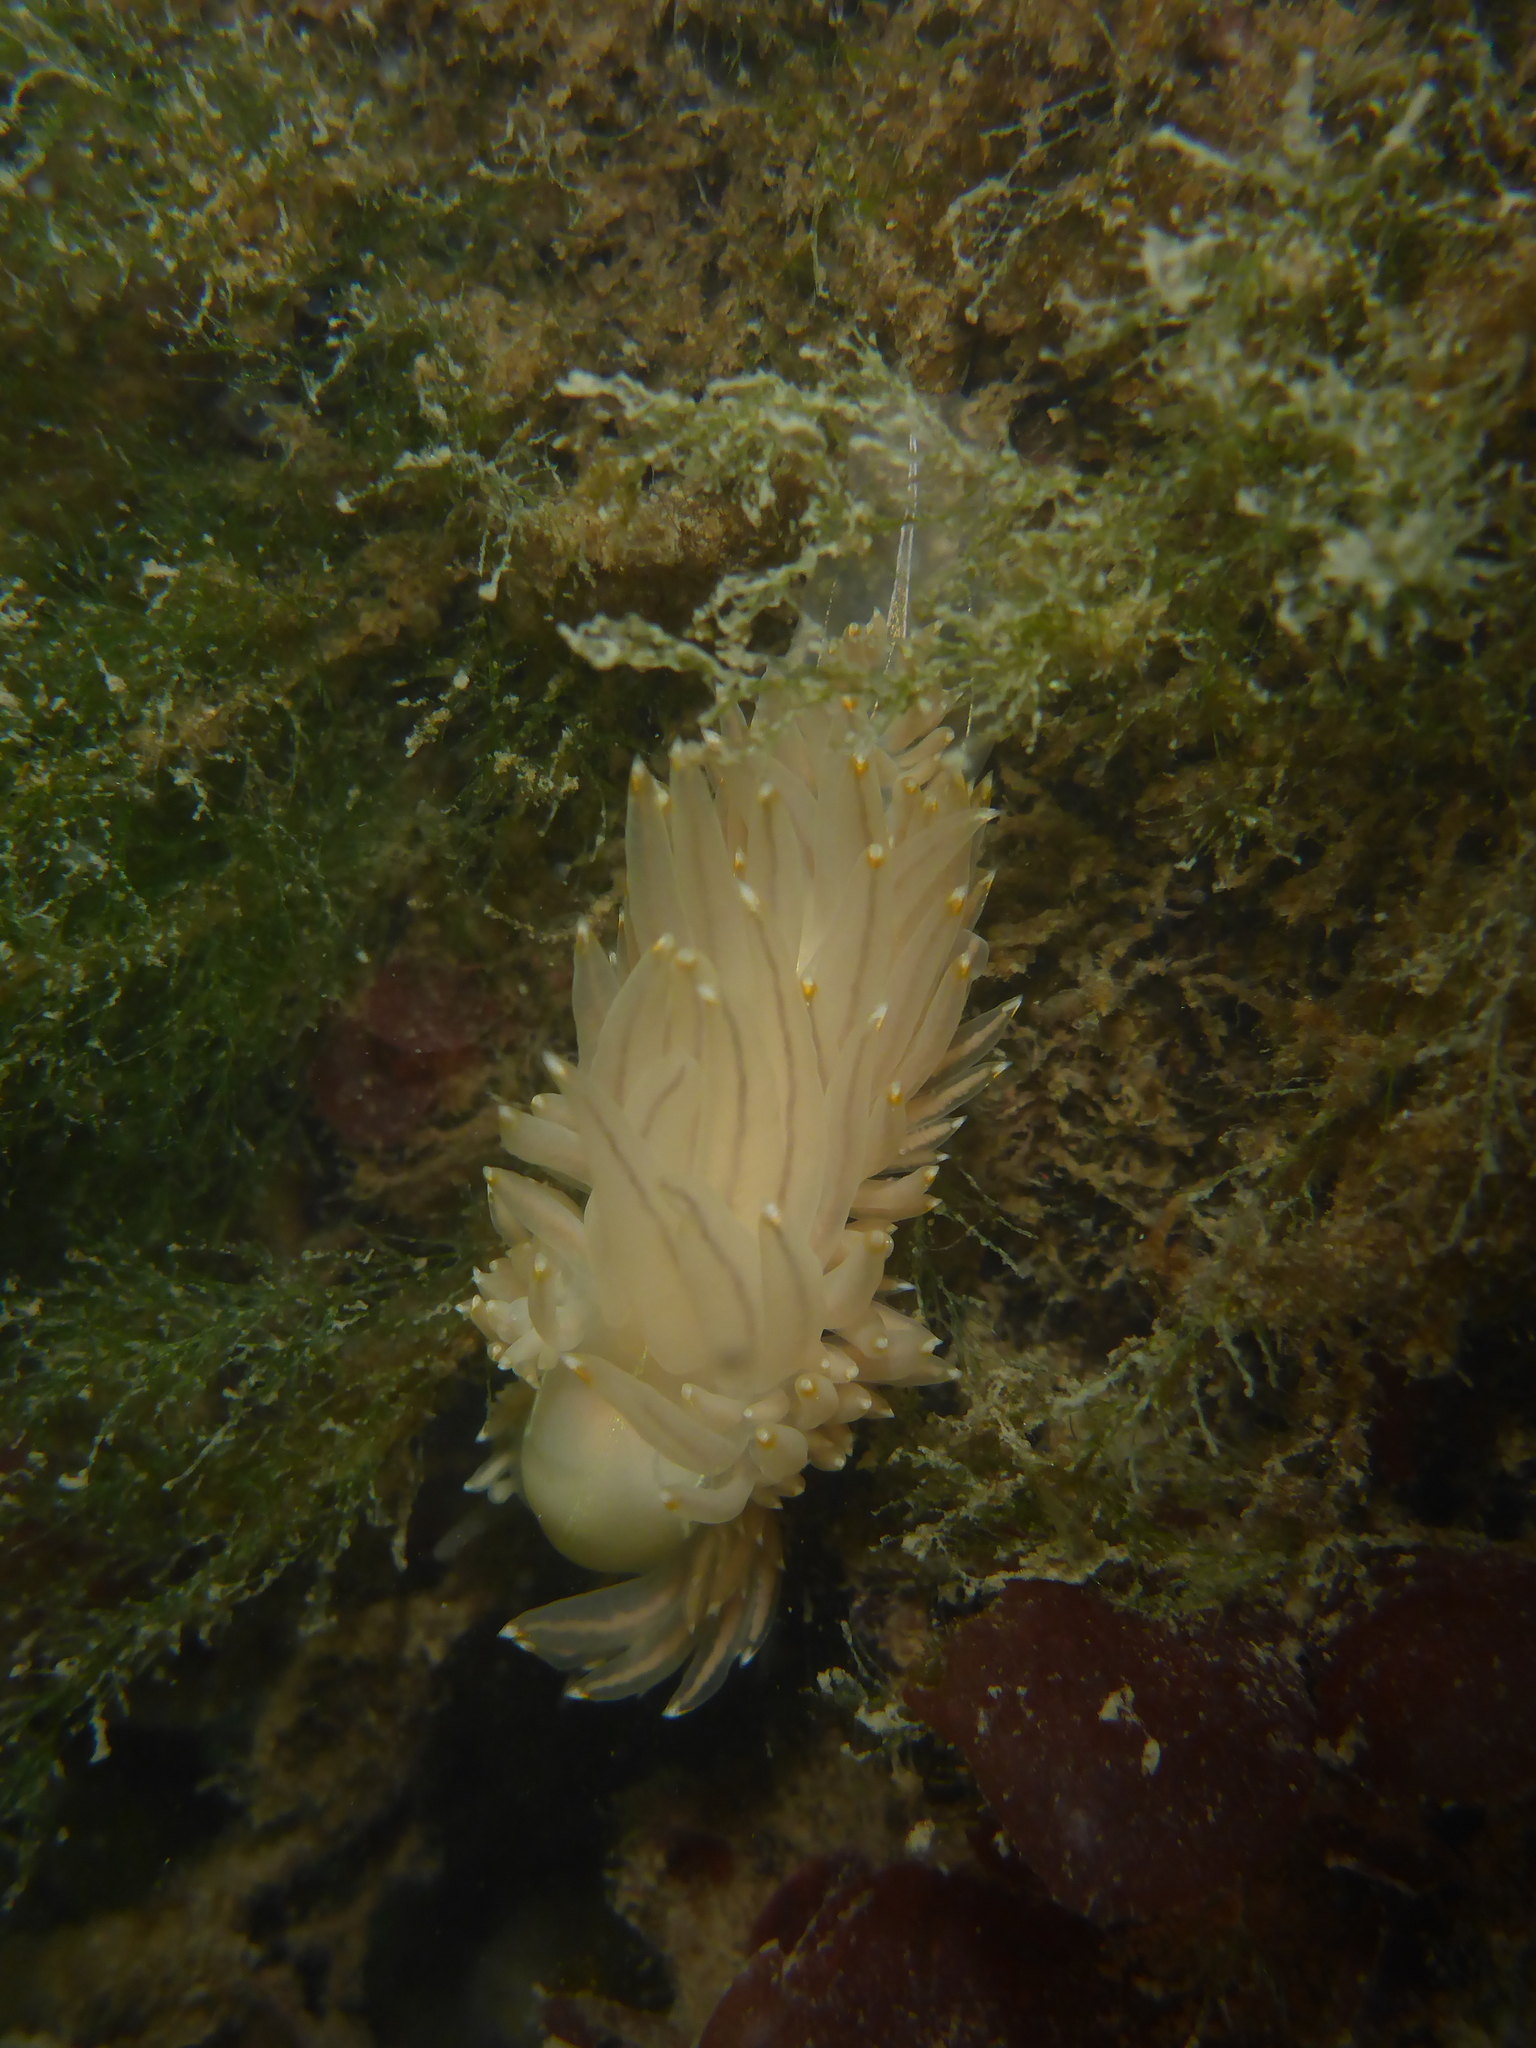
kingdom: Animalia
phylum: Mollusca
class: Gastropoda
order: Nudibranchia
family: Janolidae
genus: Antiopella
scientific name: Antiopella fusca
